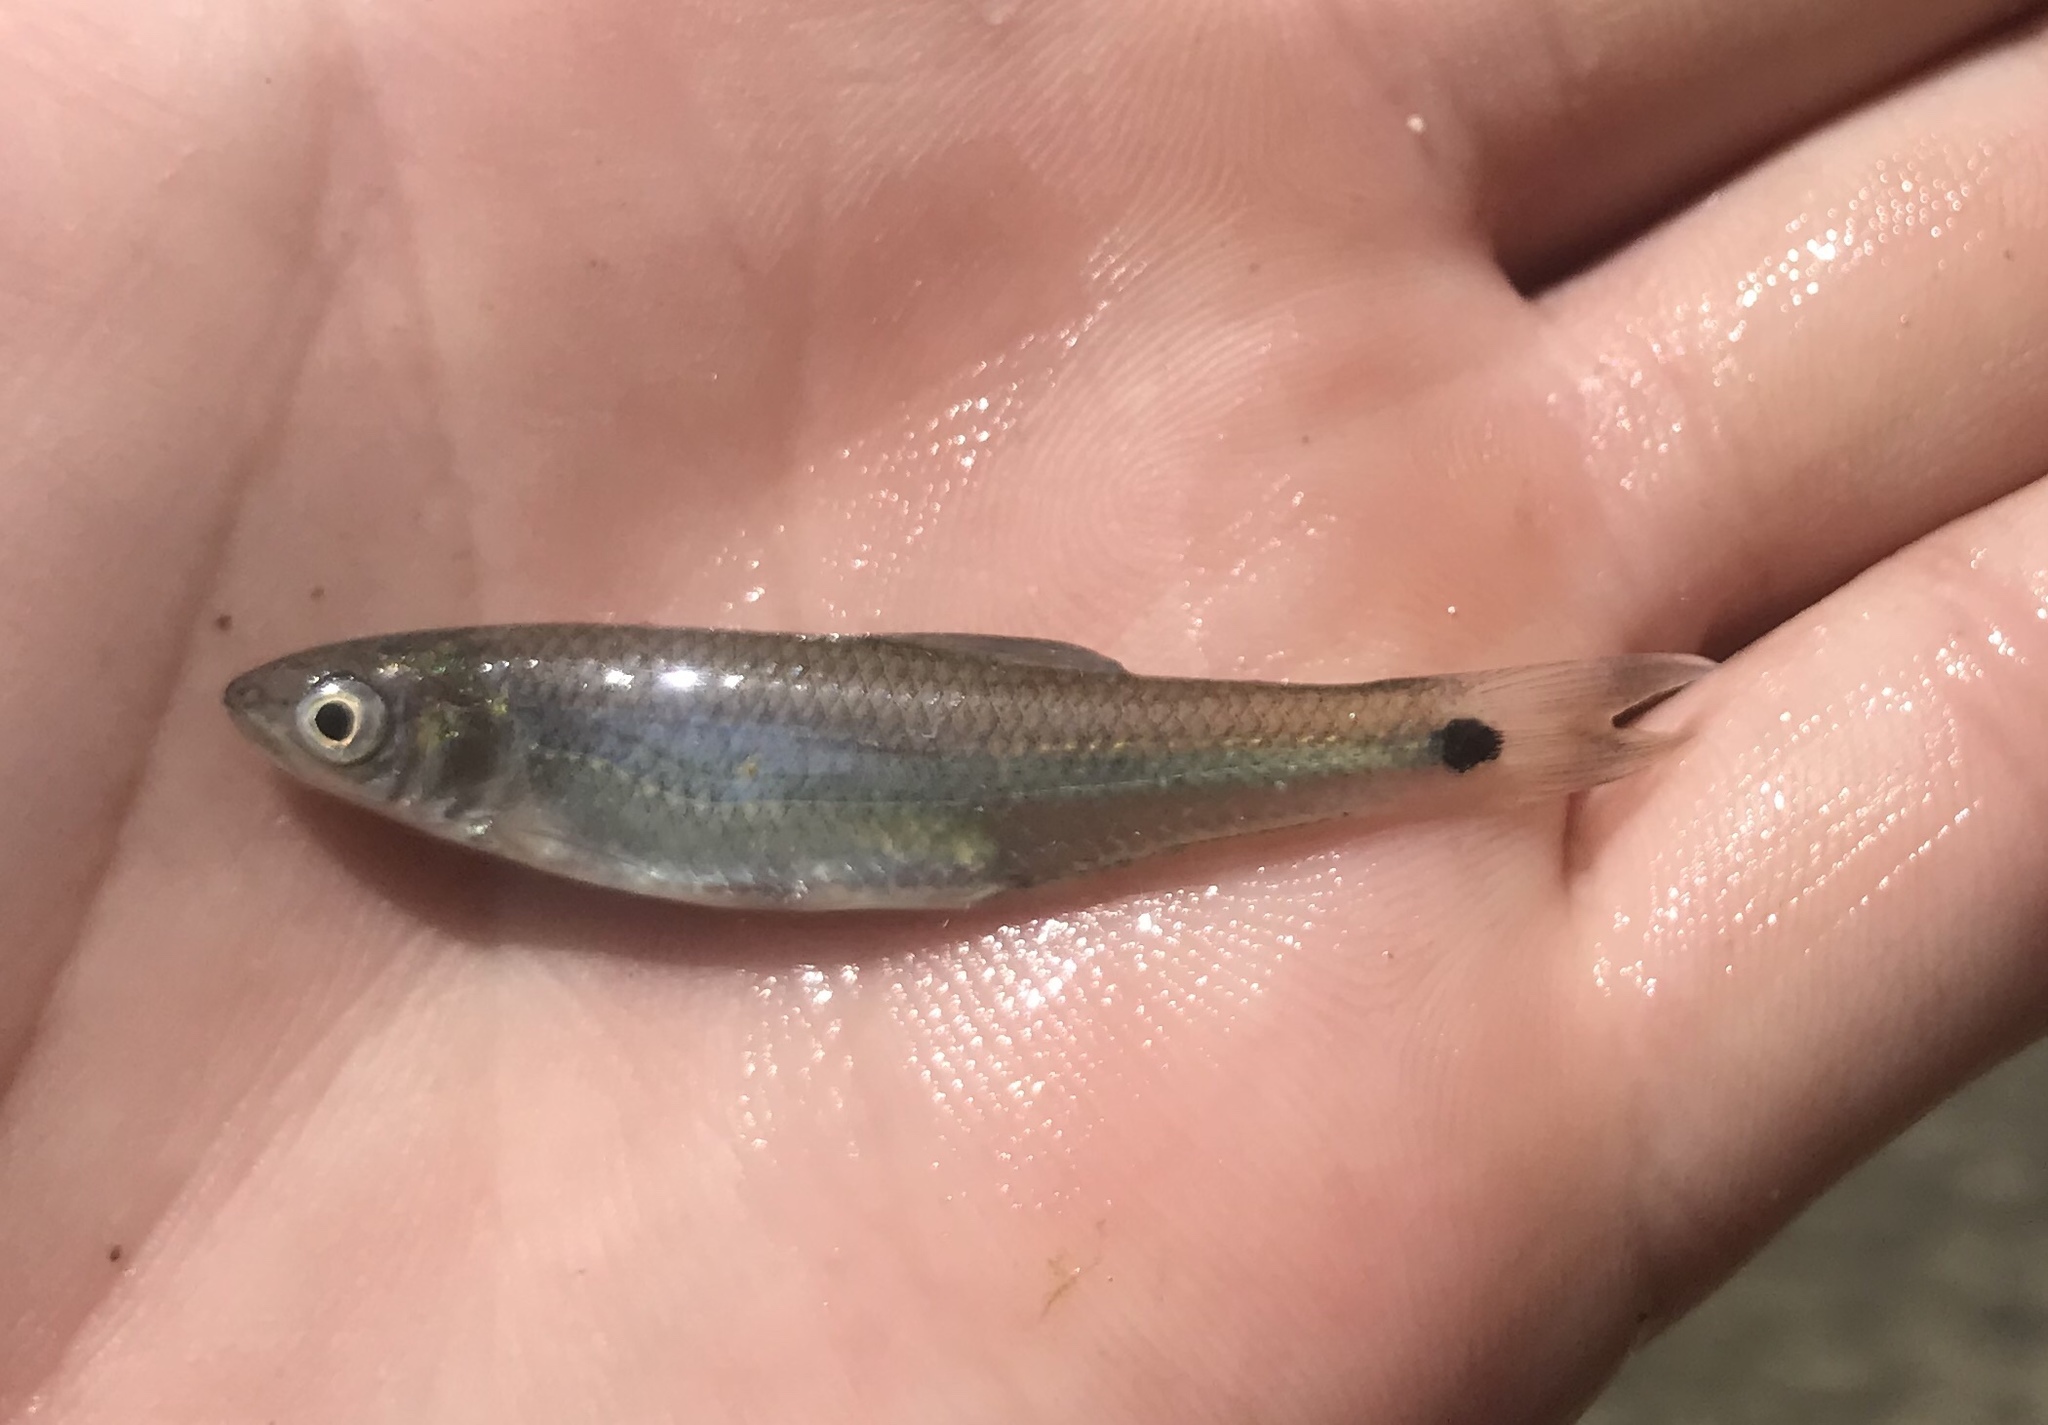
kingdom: Animalia
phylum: Chordata
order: Cypriniformes
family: Cyprinidae
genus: Cyprinella
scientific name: Cyprinella venusta
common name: Blacktail shiner
